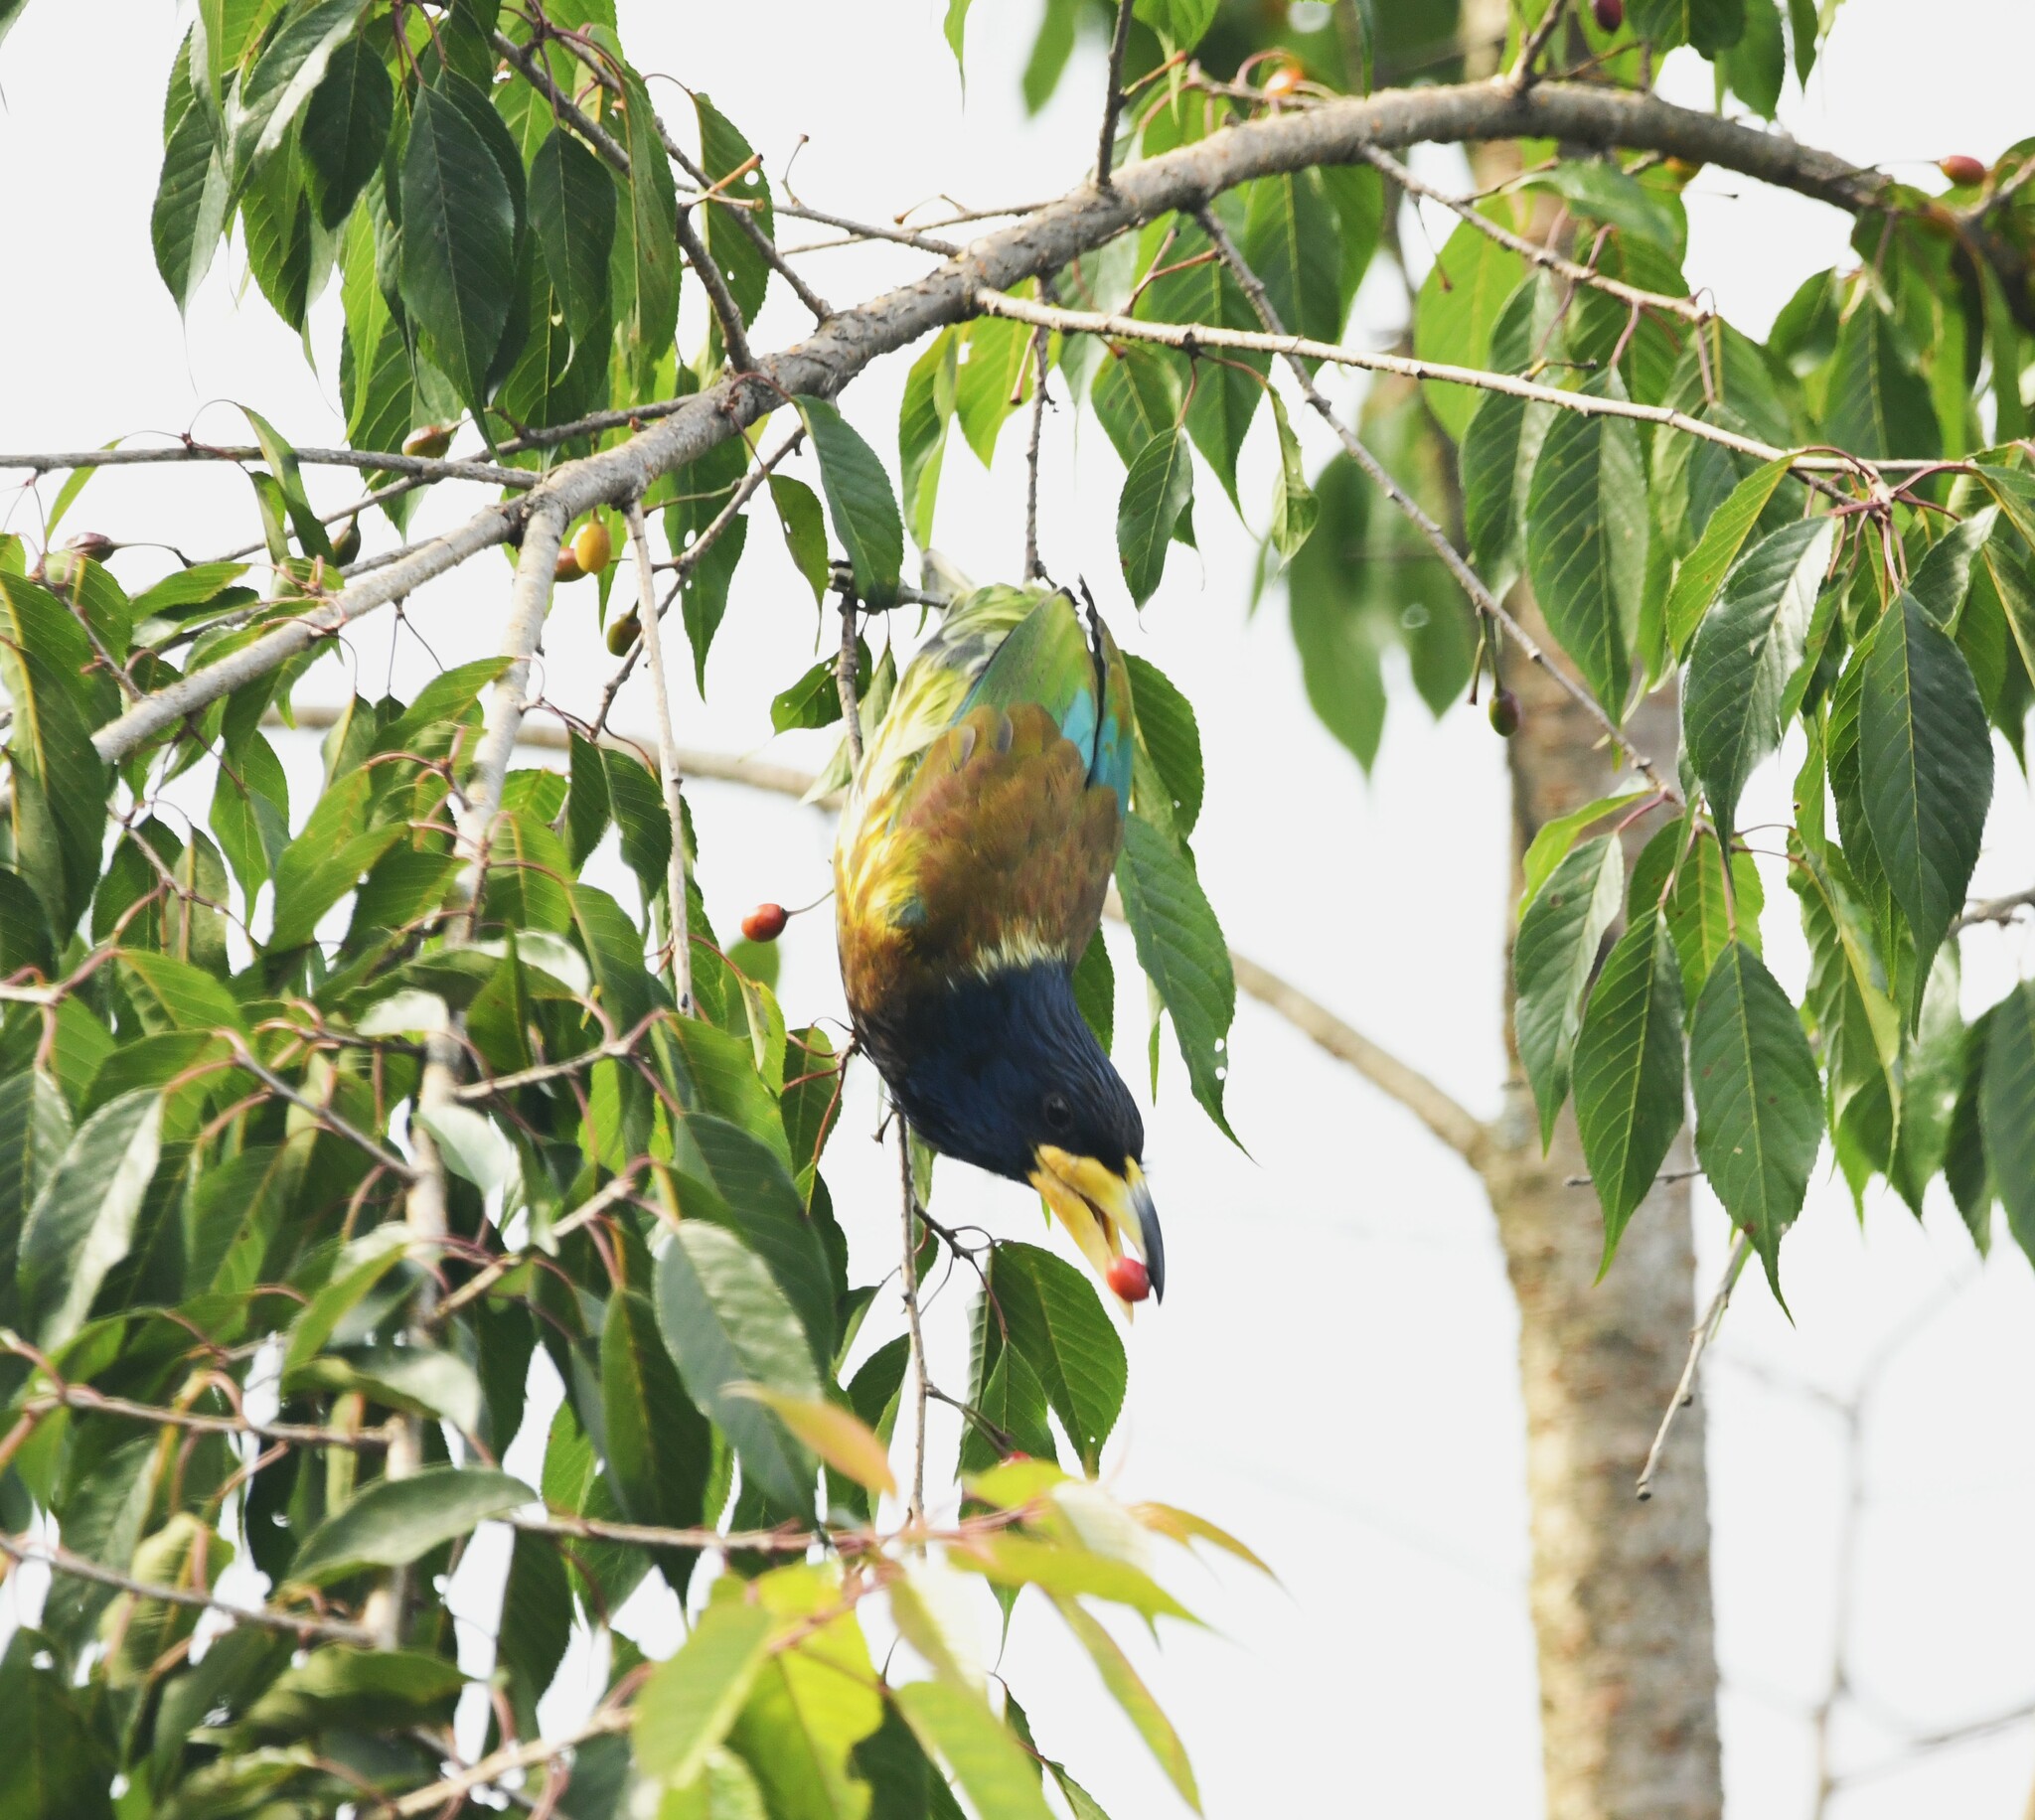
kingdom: Animalia
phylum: Chordata
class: Aves
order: Piciformes
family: Megalaimidae
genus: Psilopogon
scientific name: Psilopogon virens
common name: Great barbet
